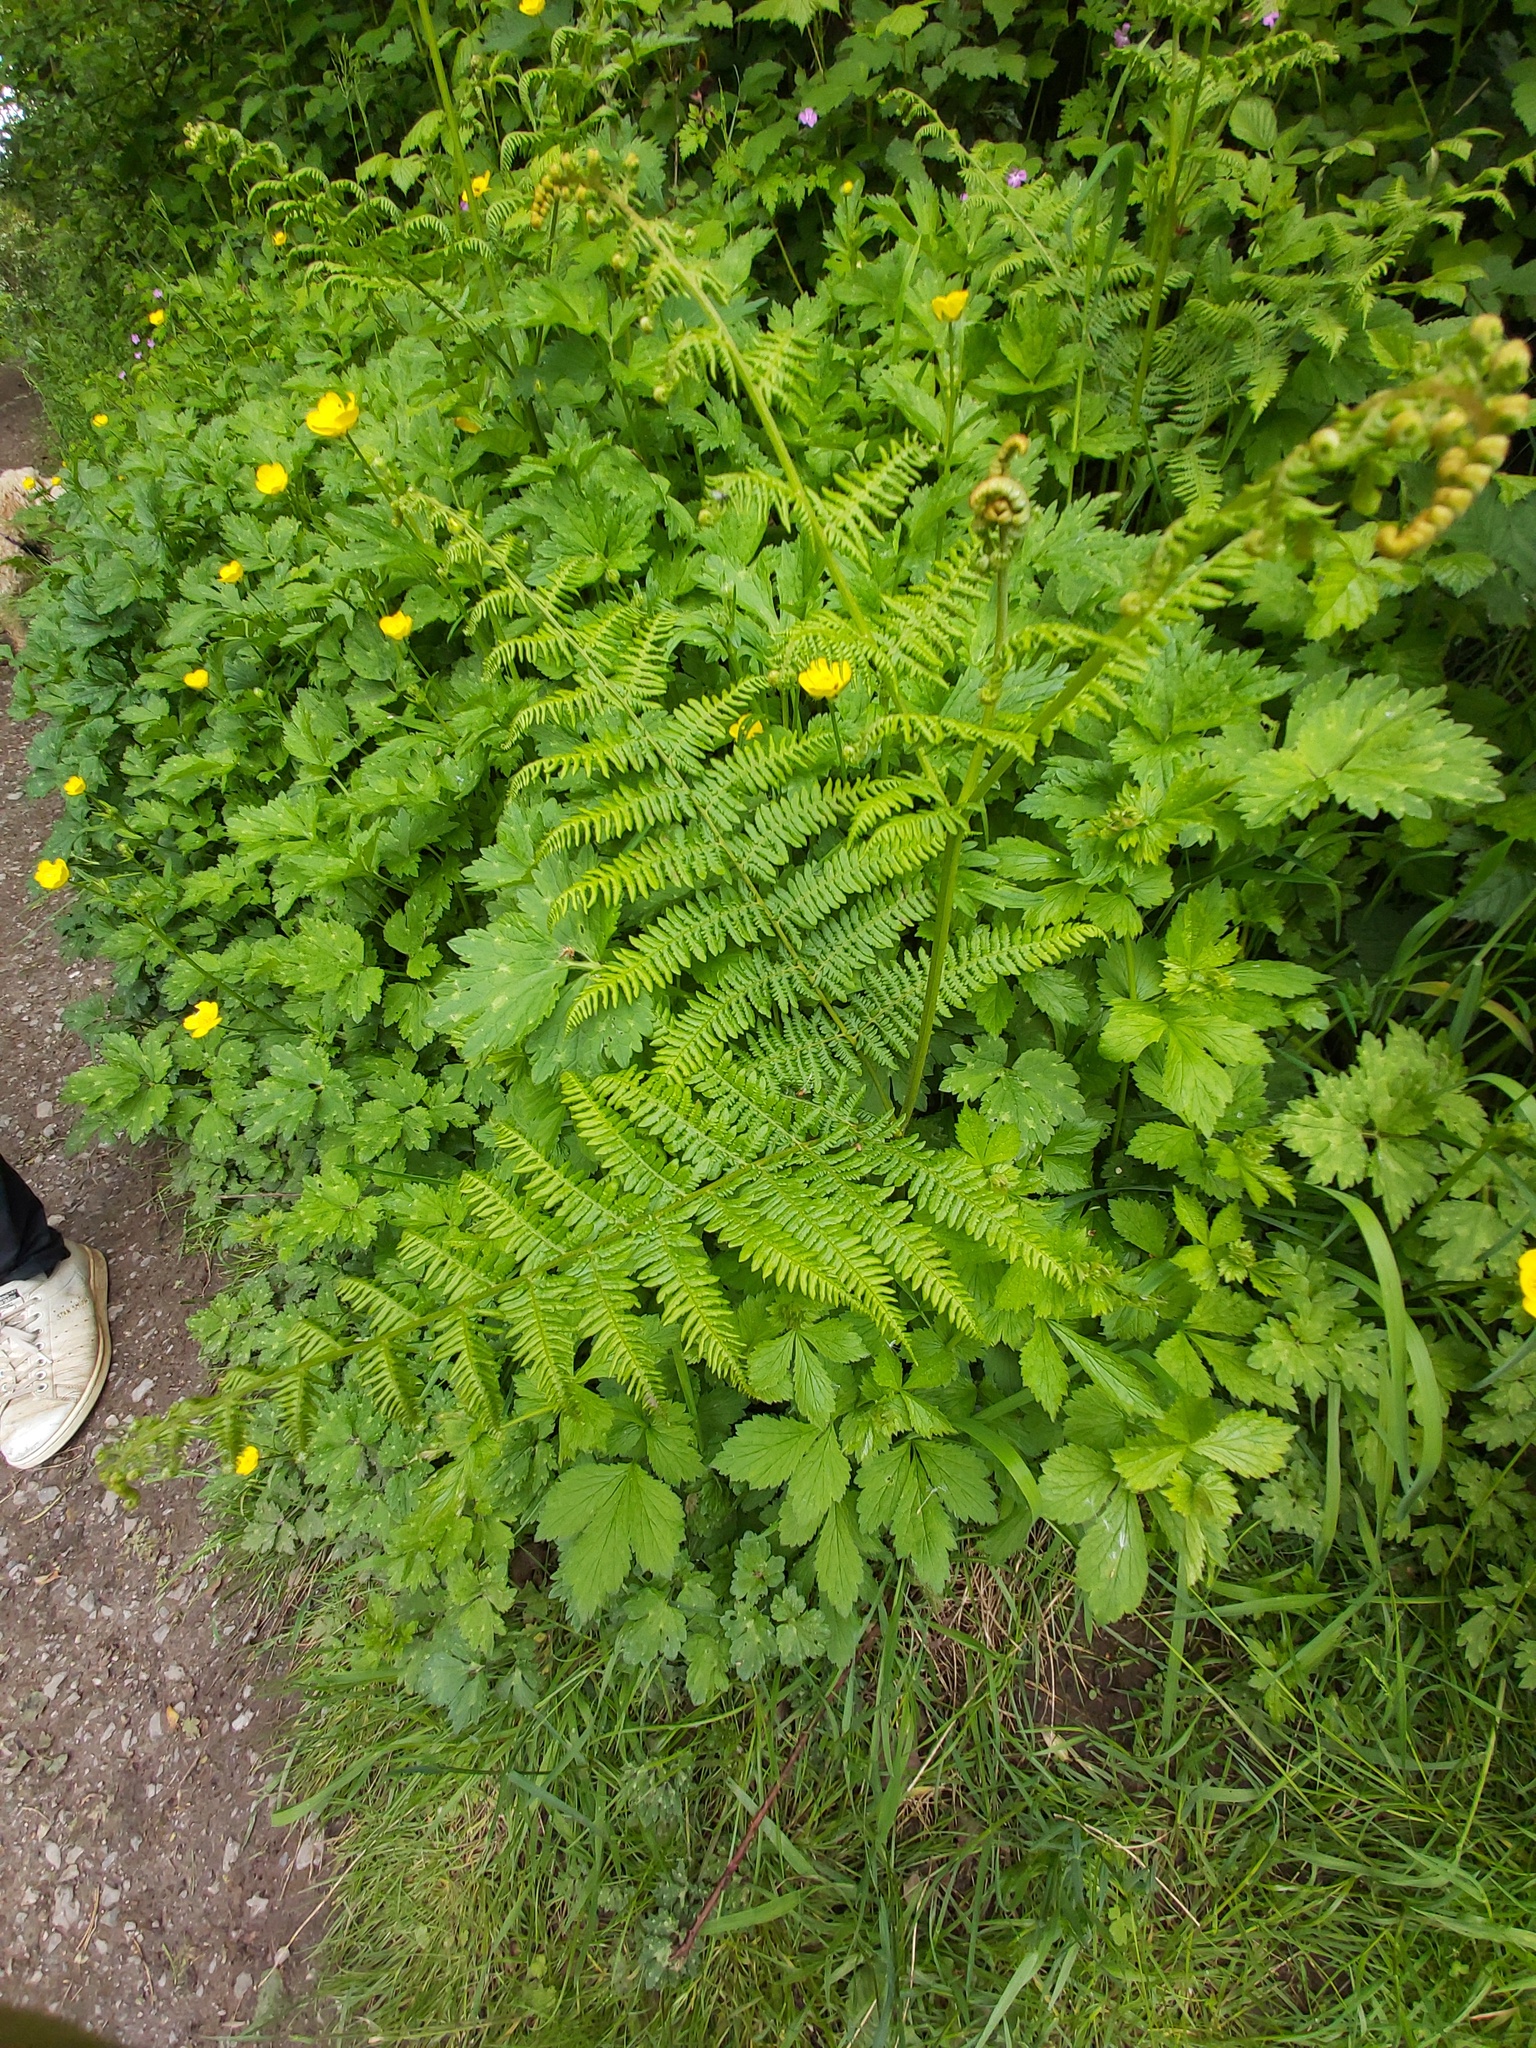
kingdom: Plantae
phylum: Tracheophyta
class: Polypodiopsida
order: Polypodiales
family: Dennstaedtiaceae
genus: Pteridium
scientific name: Pteridium aquilinum
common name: Bracken
